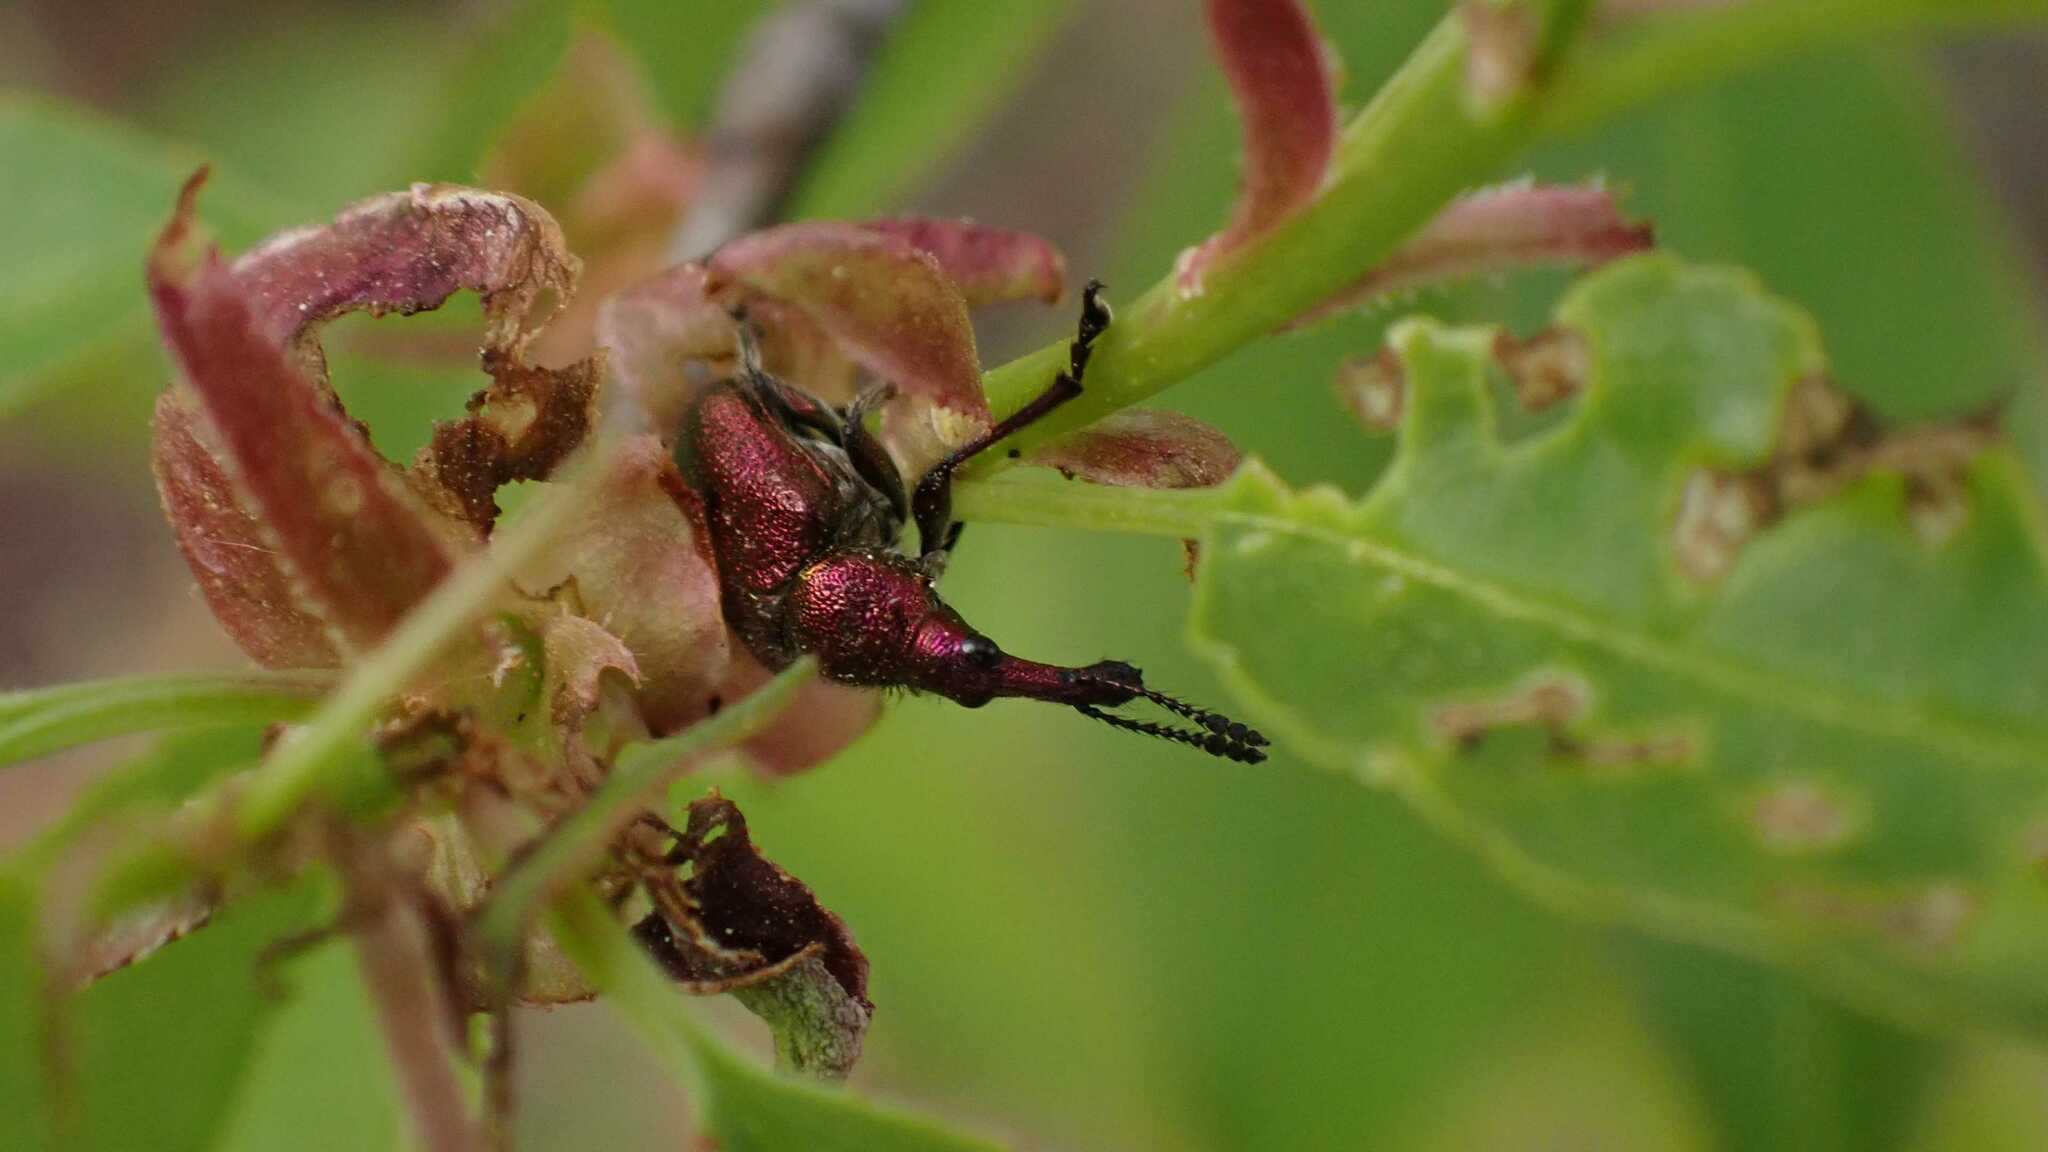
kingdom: Animalia
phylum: Arthropoda
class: Insecta
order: Coleoptera
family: Attelabidae
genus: Rhynchites
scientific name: Rhynchites auratus
